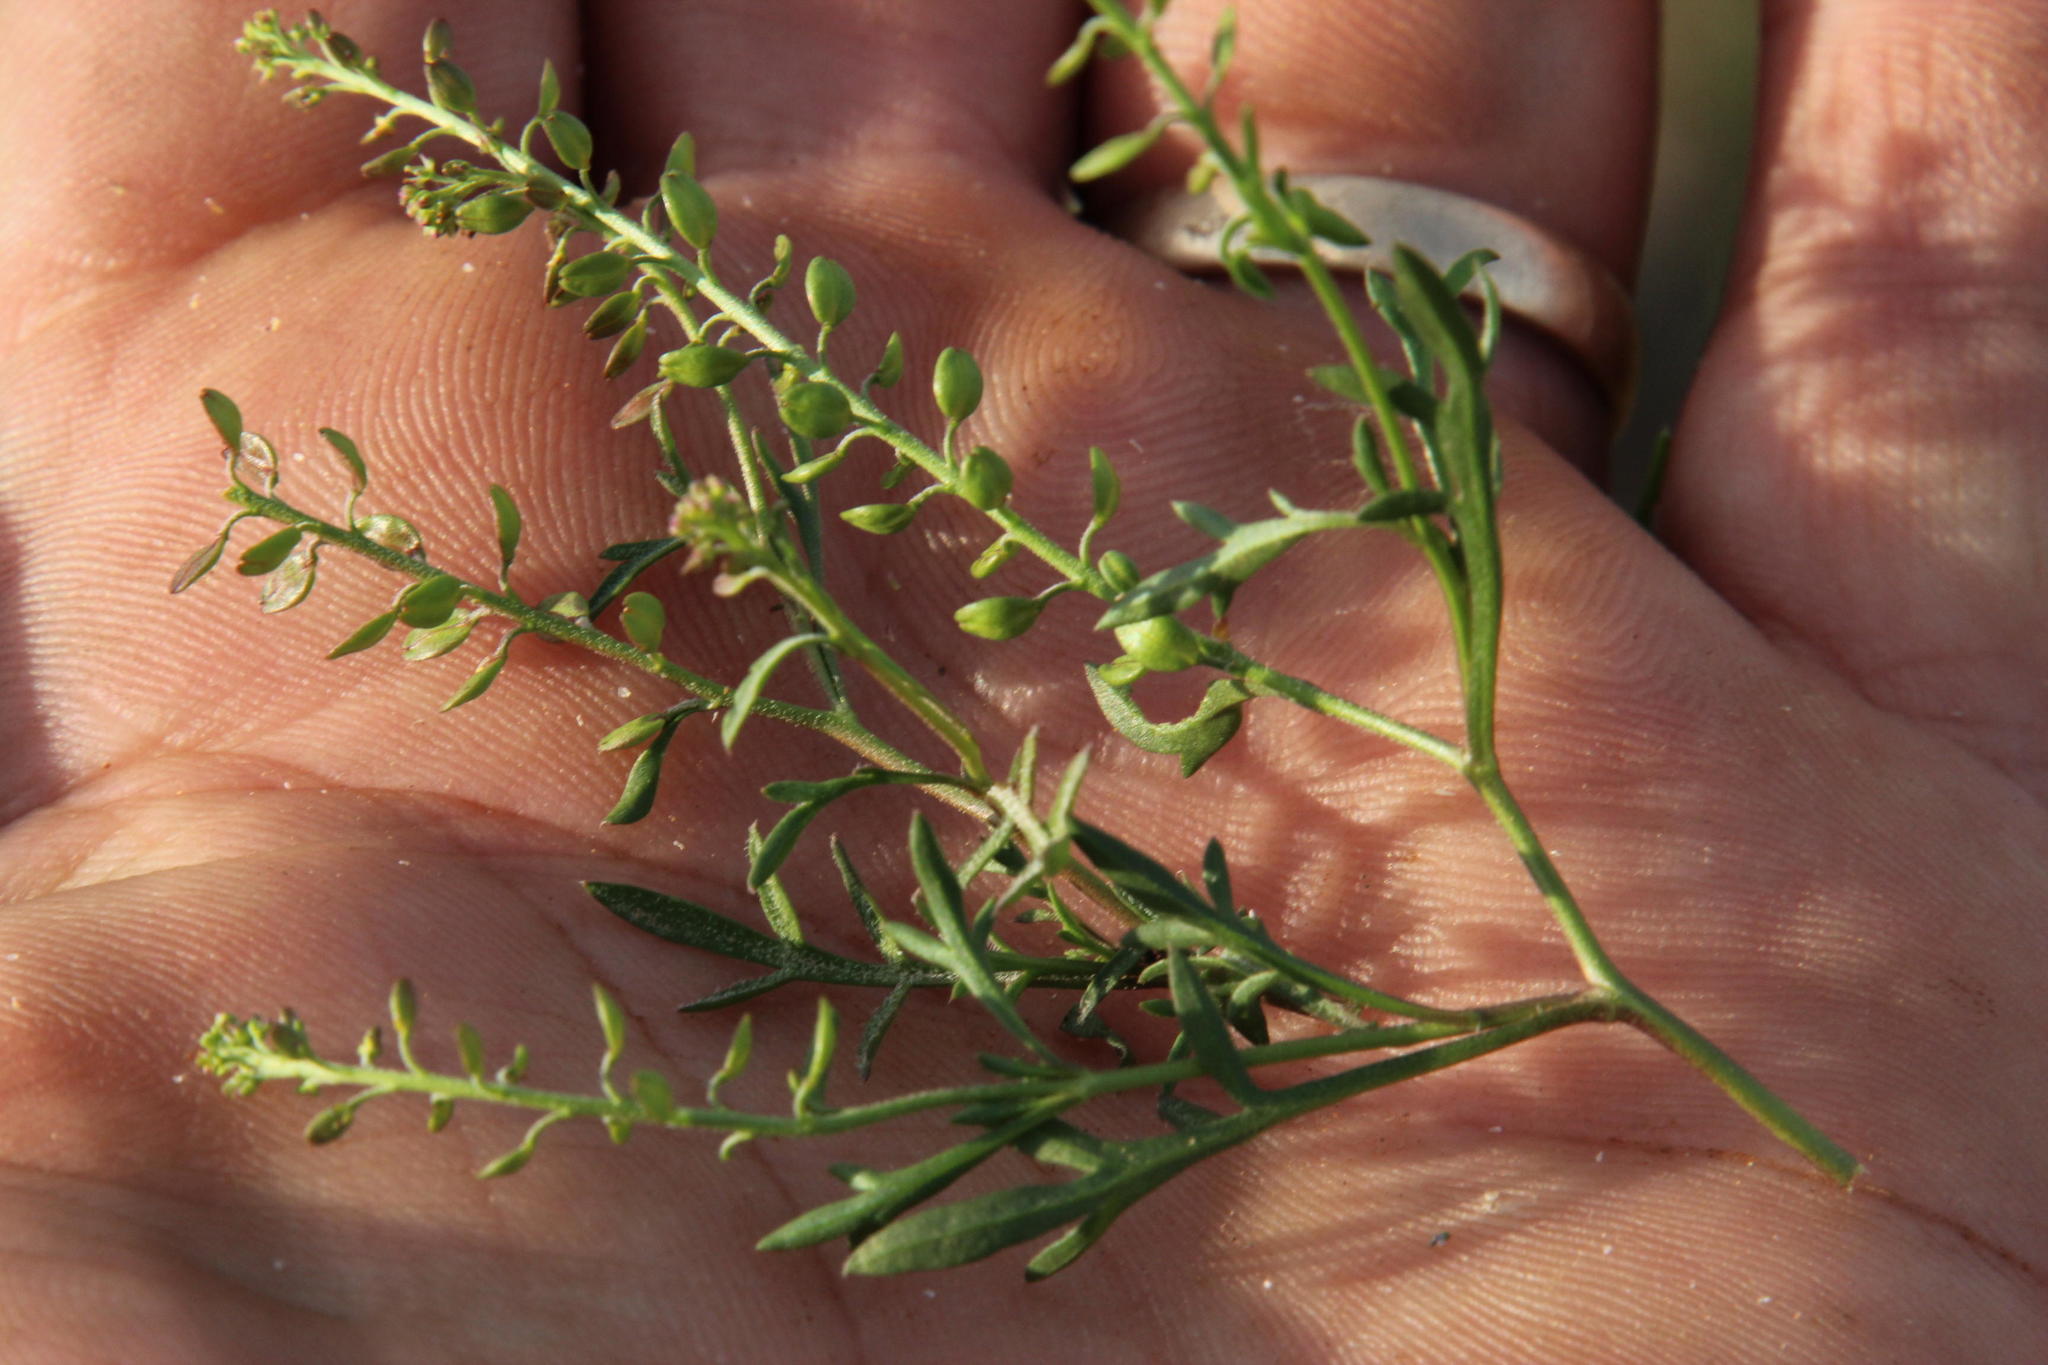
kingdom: Plantae
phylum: Tracheophyta
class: Magnoliopsida
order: Brassicales
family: Brassicaceae
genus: Lepidium
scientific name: Lepidium divaricatum
